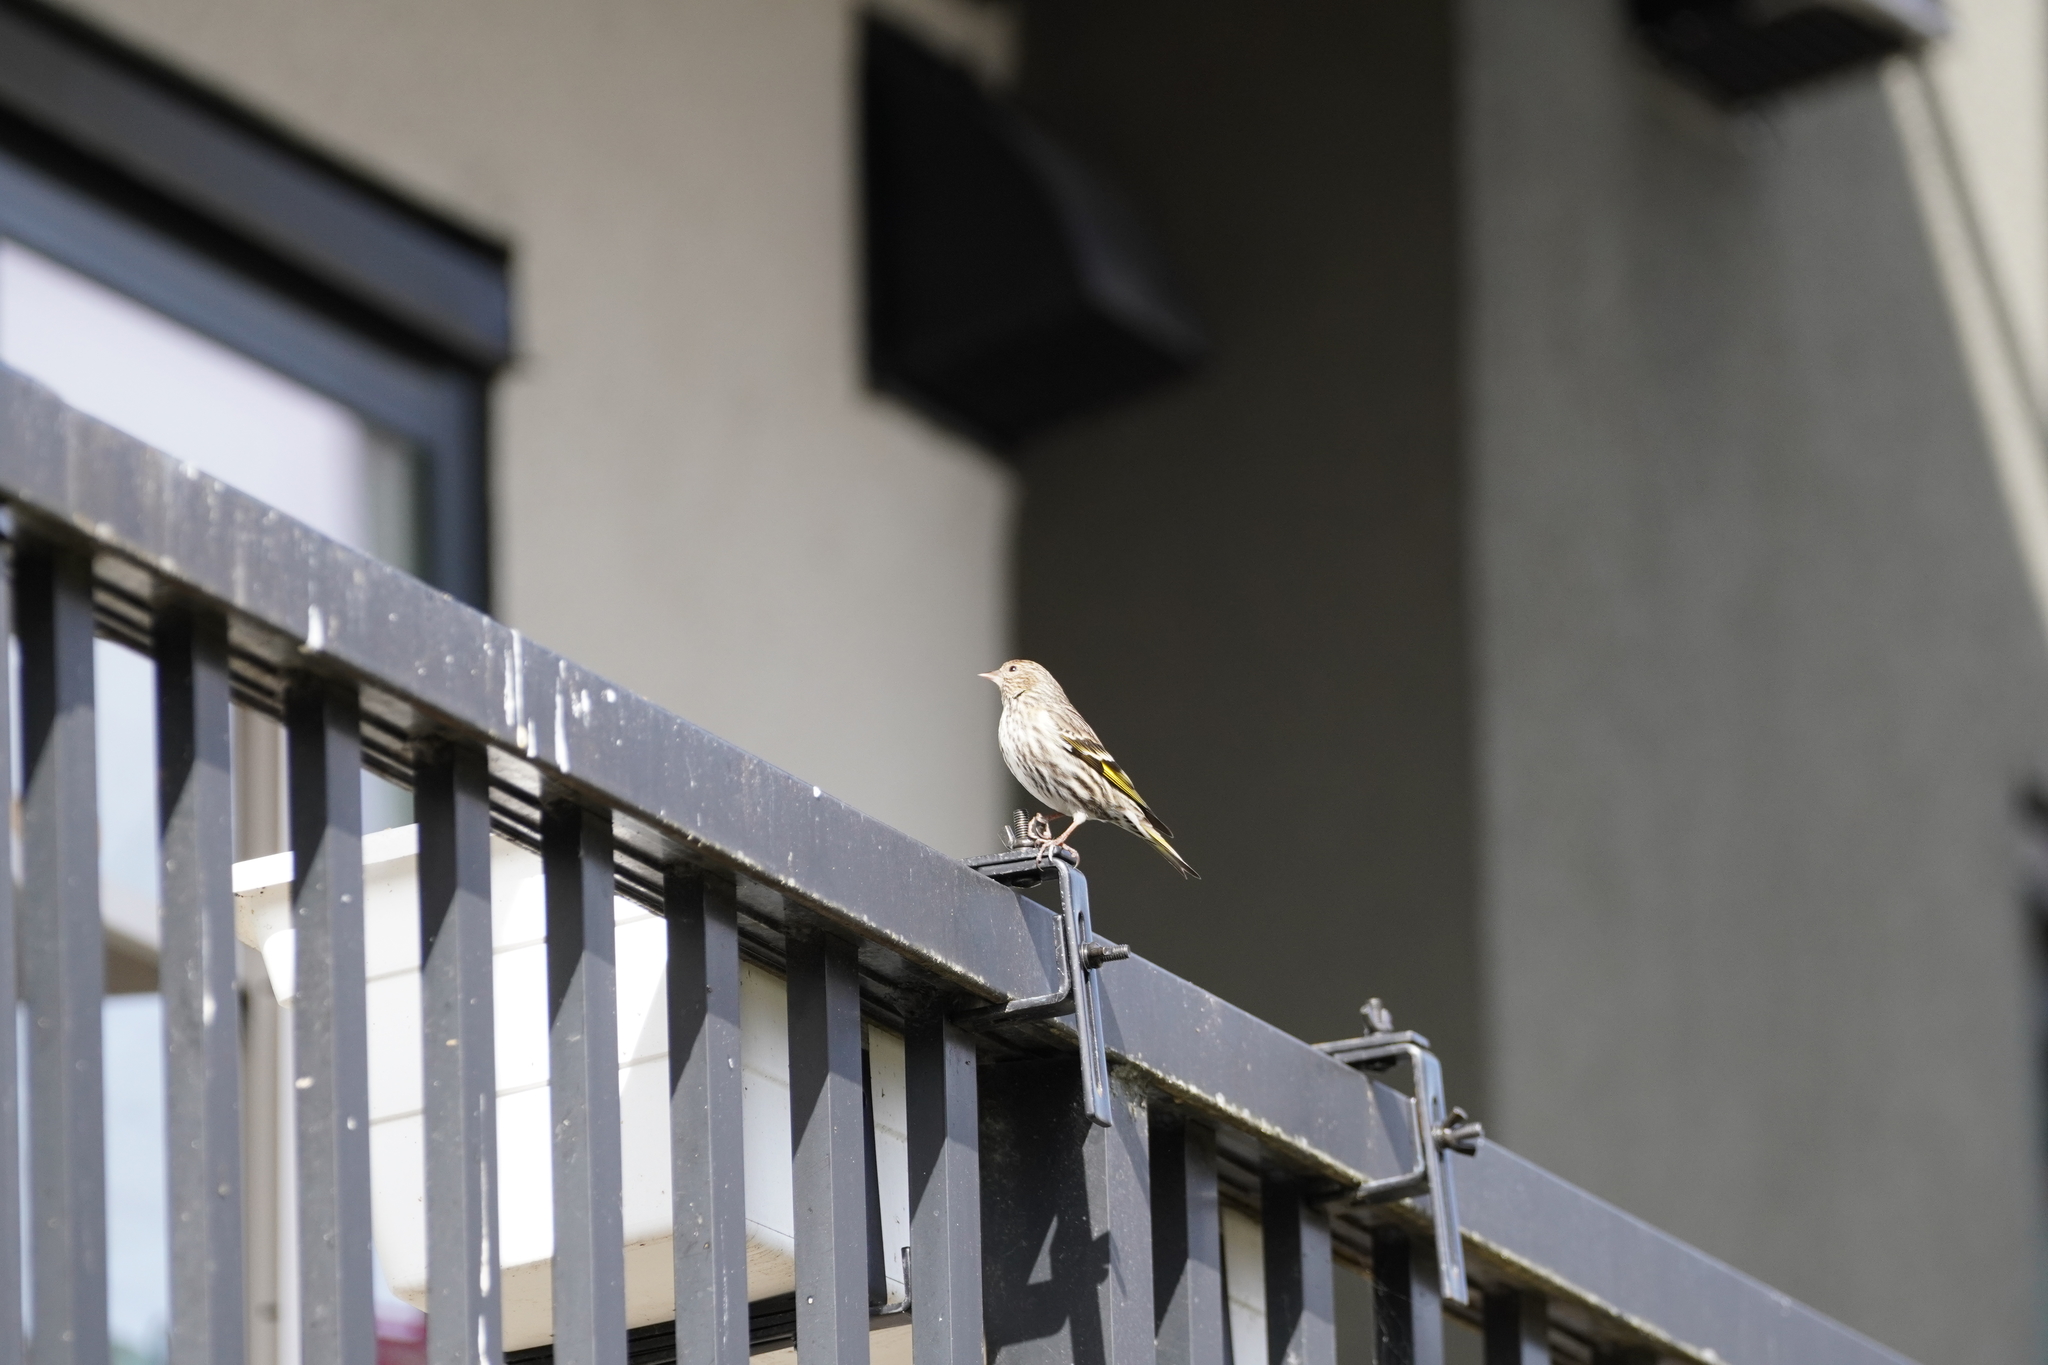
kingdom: Animalia
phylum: Chordata
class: Aves
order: Passeriformes
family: Fringillidae
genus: Spinus
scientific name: Spinus pinus
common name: Pine siskin
